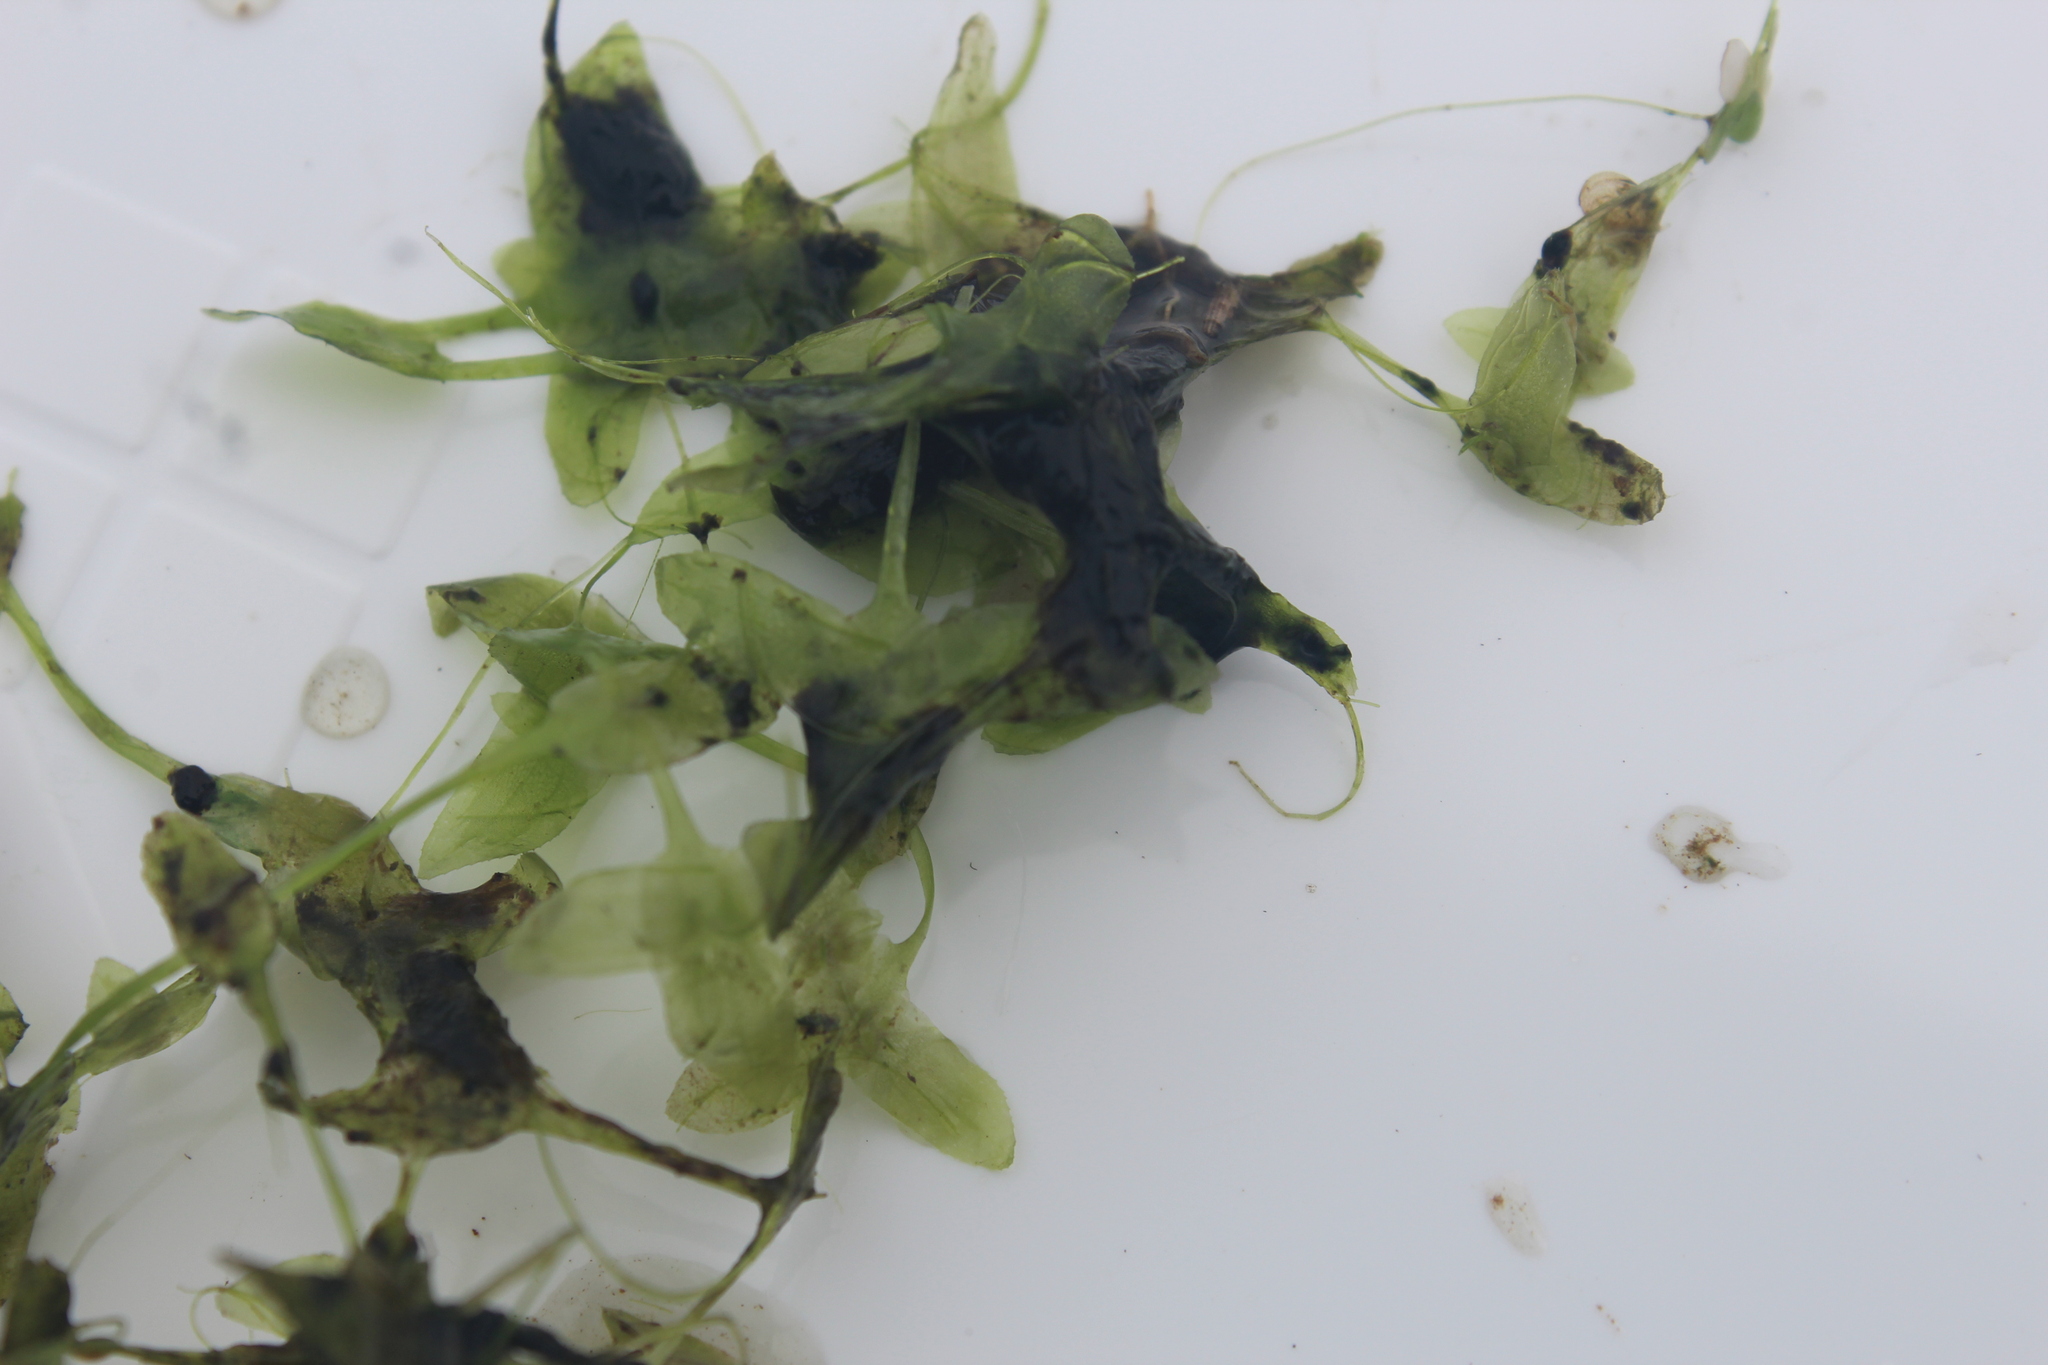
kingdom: Plantae
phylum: Tracheophyta
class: Liliopsida
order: Alismatales
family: Araceae
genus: Lemna
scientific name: Lemna trisulca
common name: Ivy-leaved duckweed
